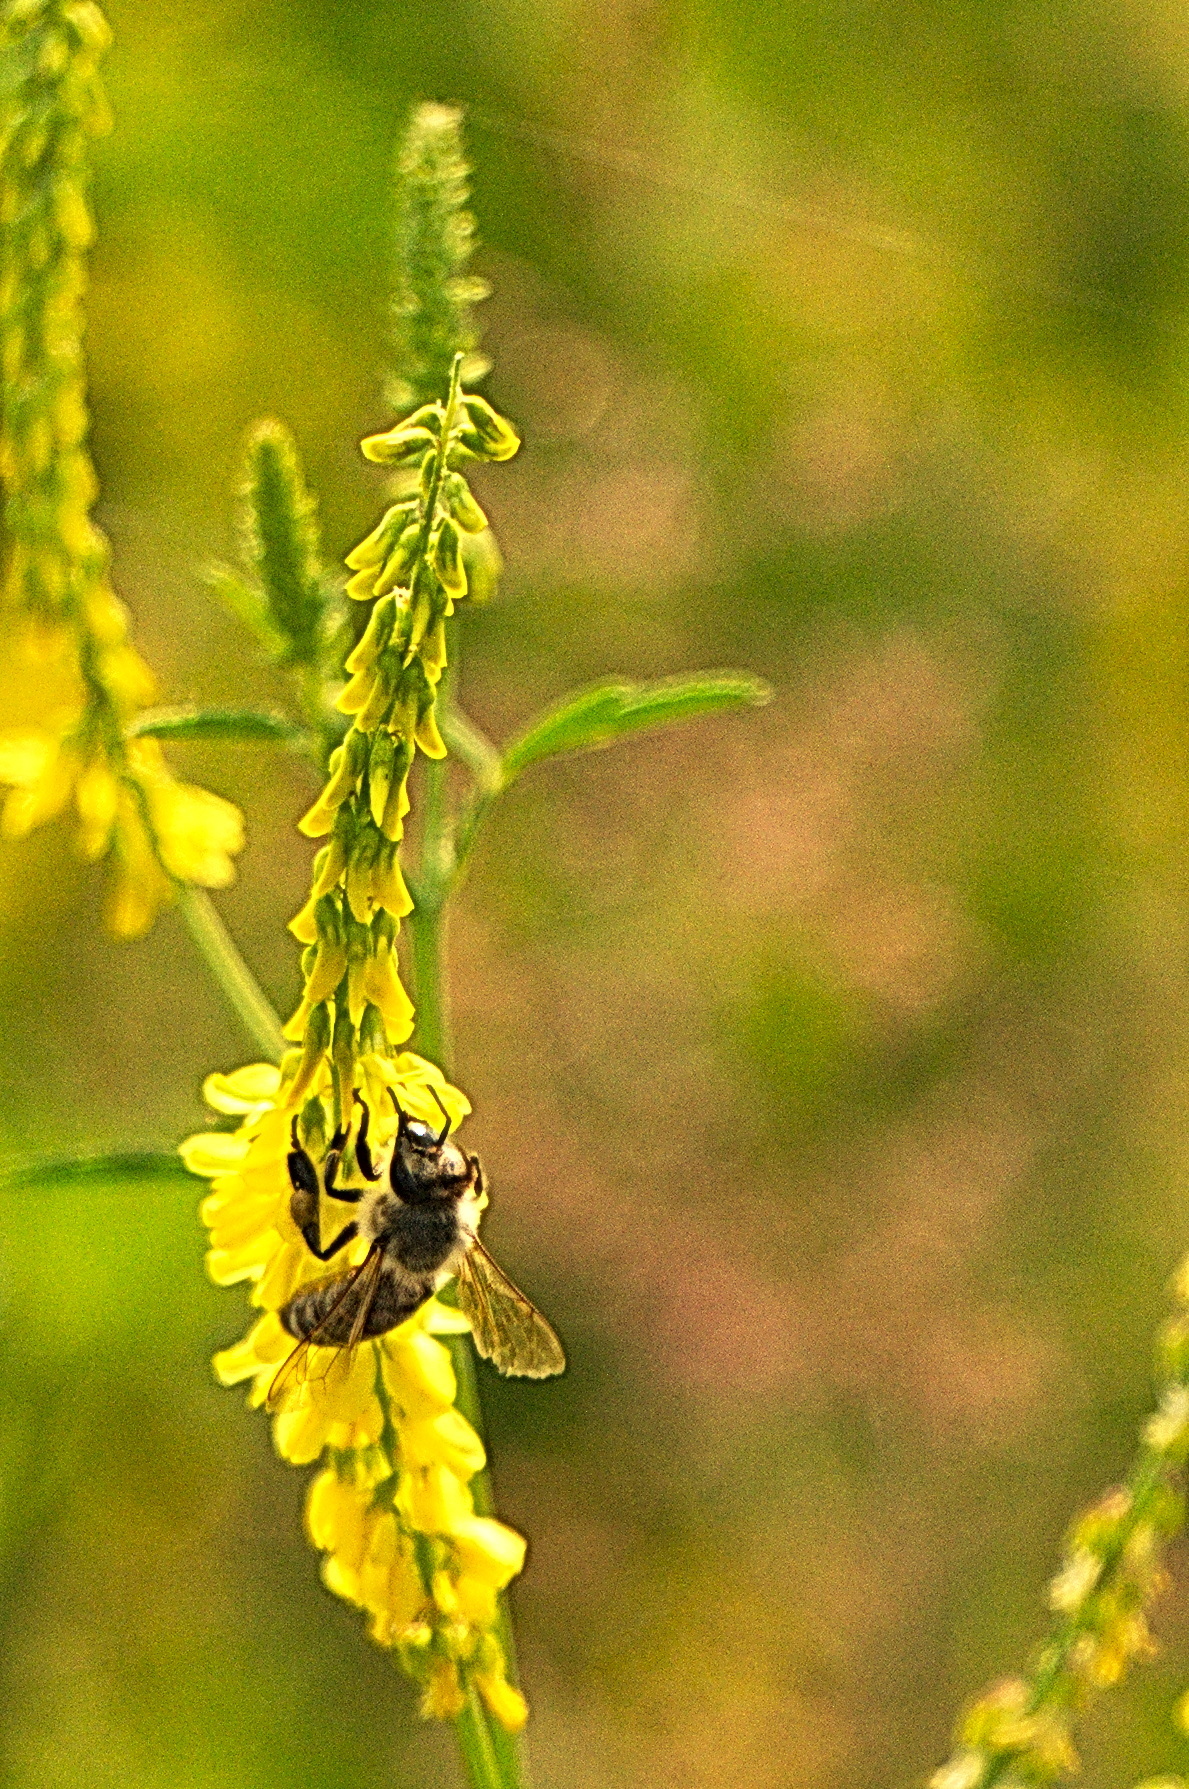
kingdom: Animalia
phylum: Arthropoda
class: Insecta
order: Hymenoptera
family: Apidae
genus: Apis
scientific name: Apis mellifera
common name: Honey bee
